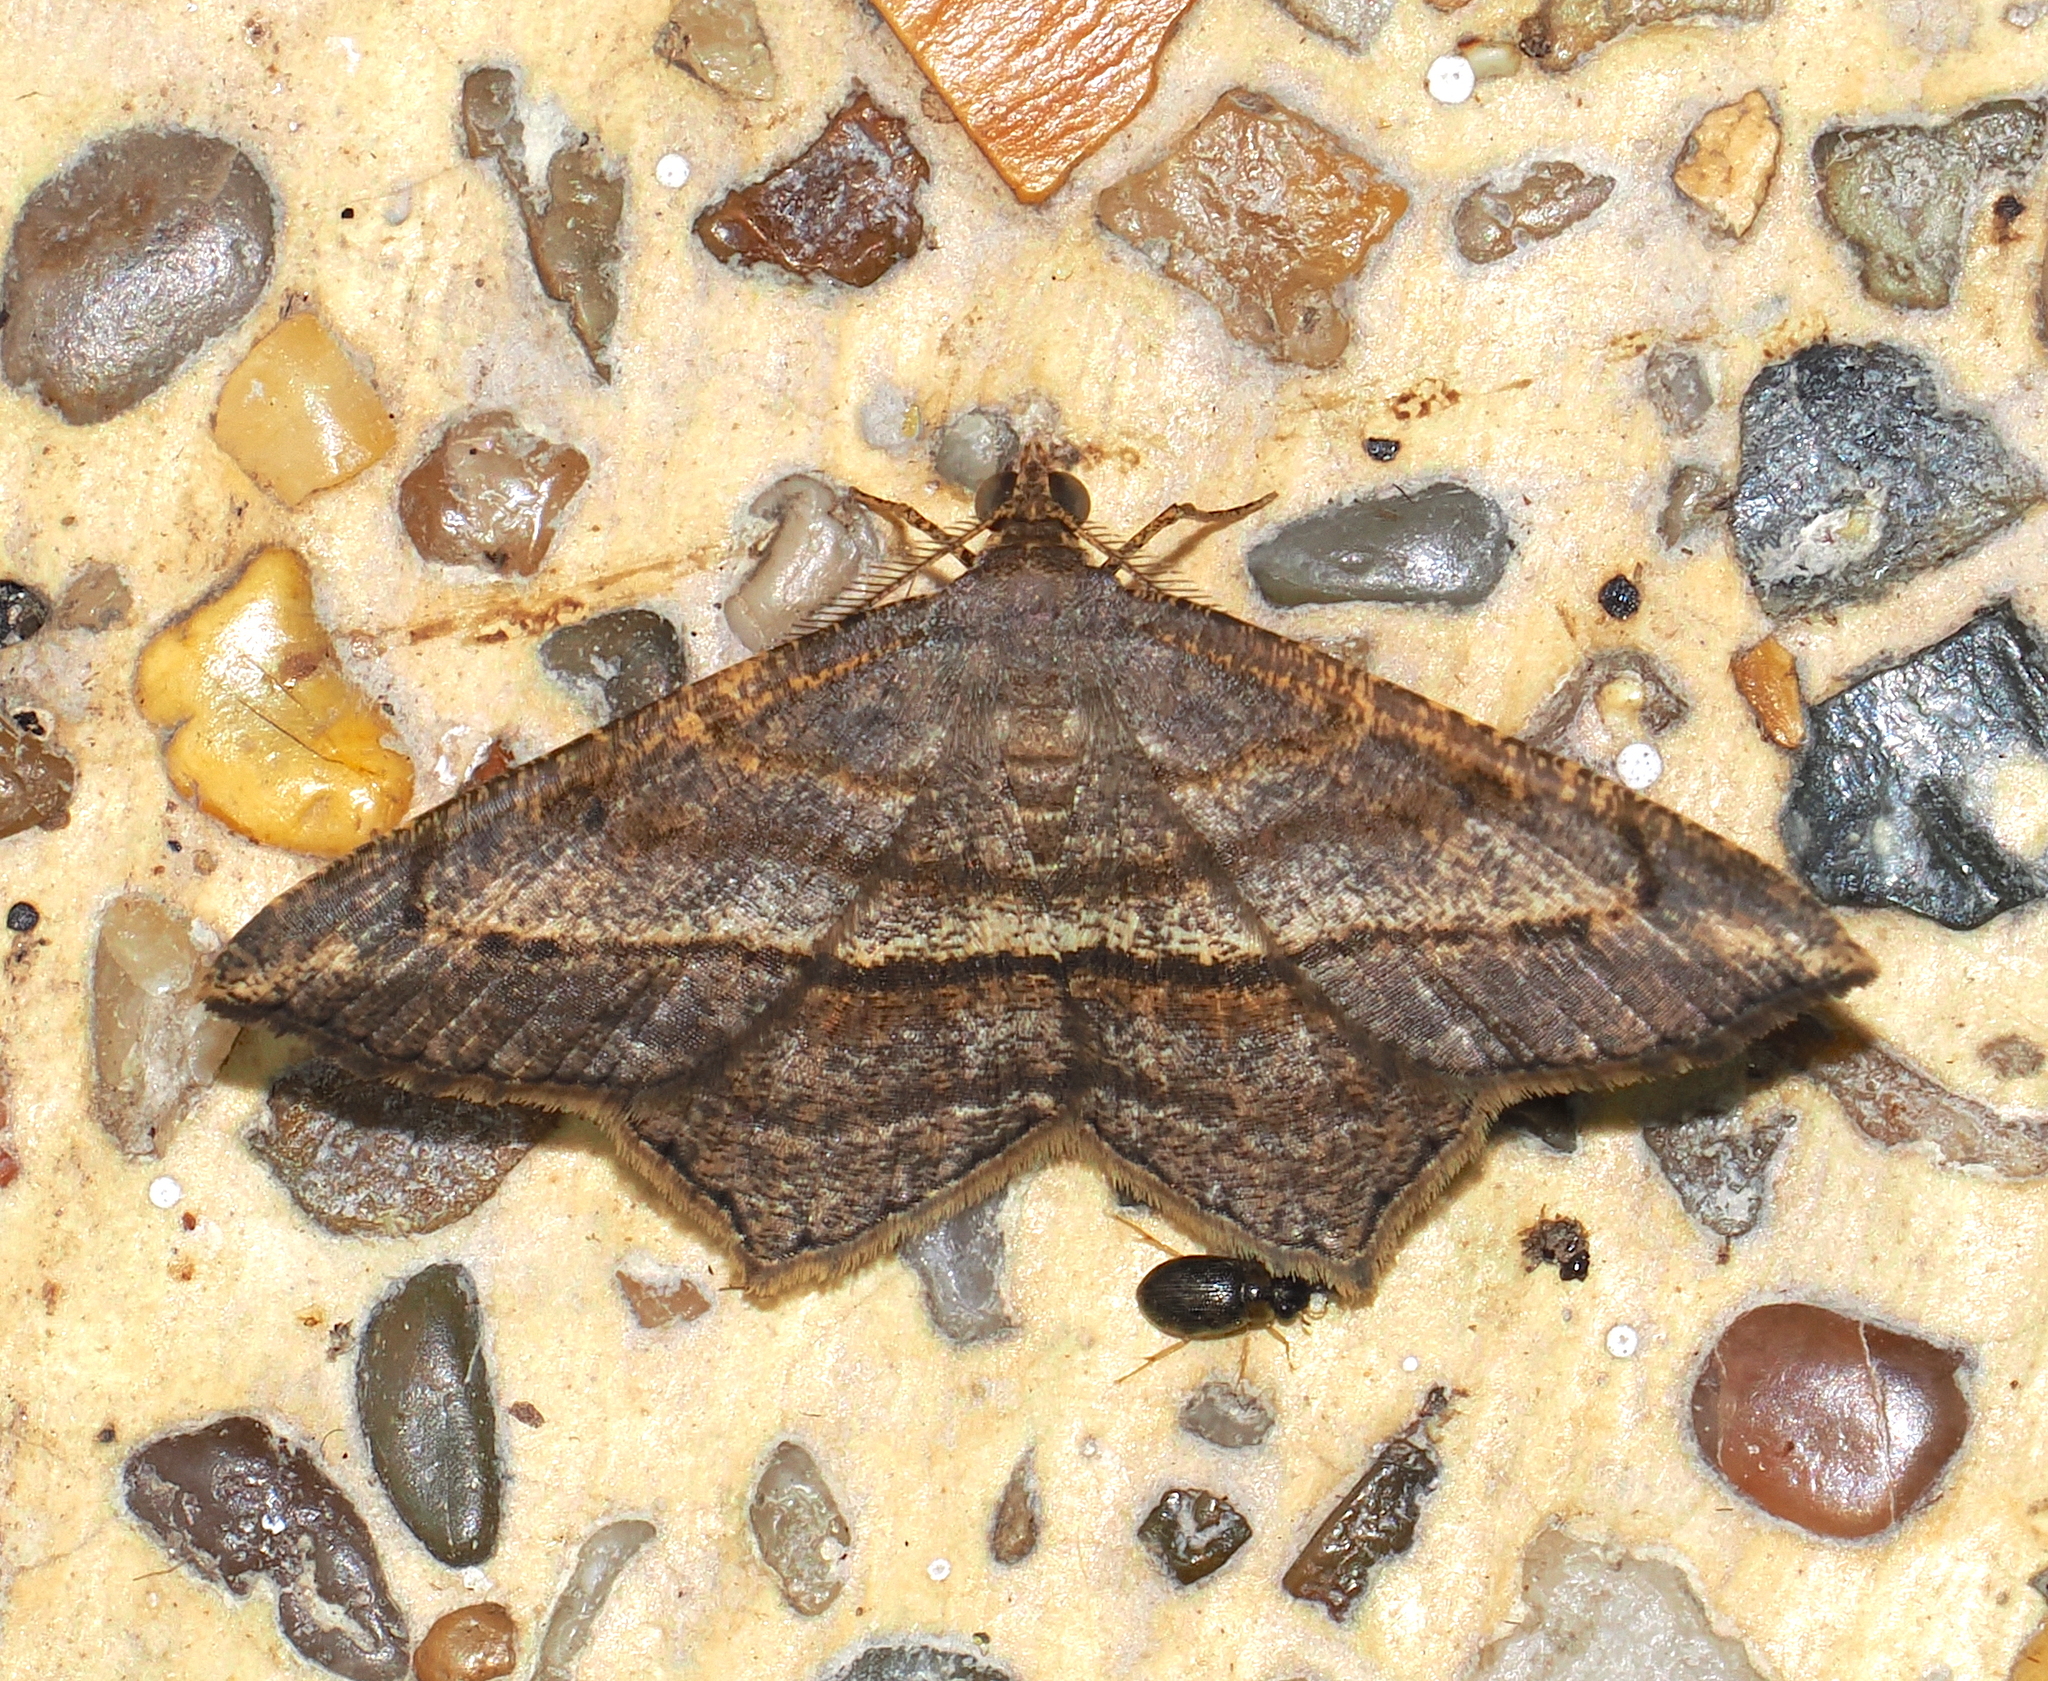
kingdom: Animalia
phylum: Arthropoda
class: Insecta
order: Lepidoptera
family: Geometridae
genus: Macaria
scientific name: Macaria pandaria
